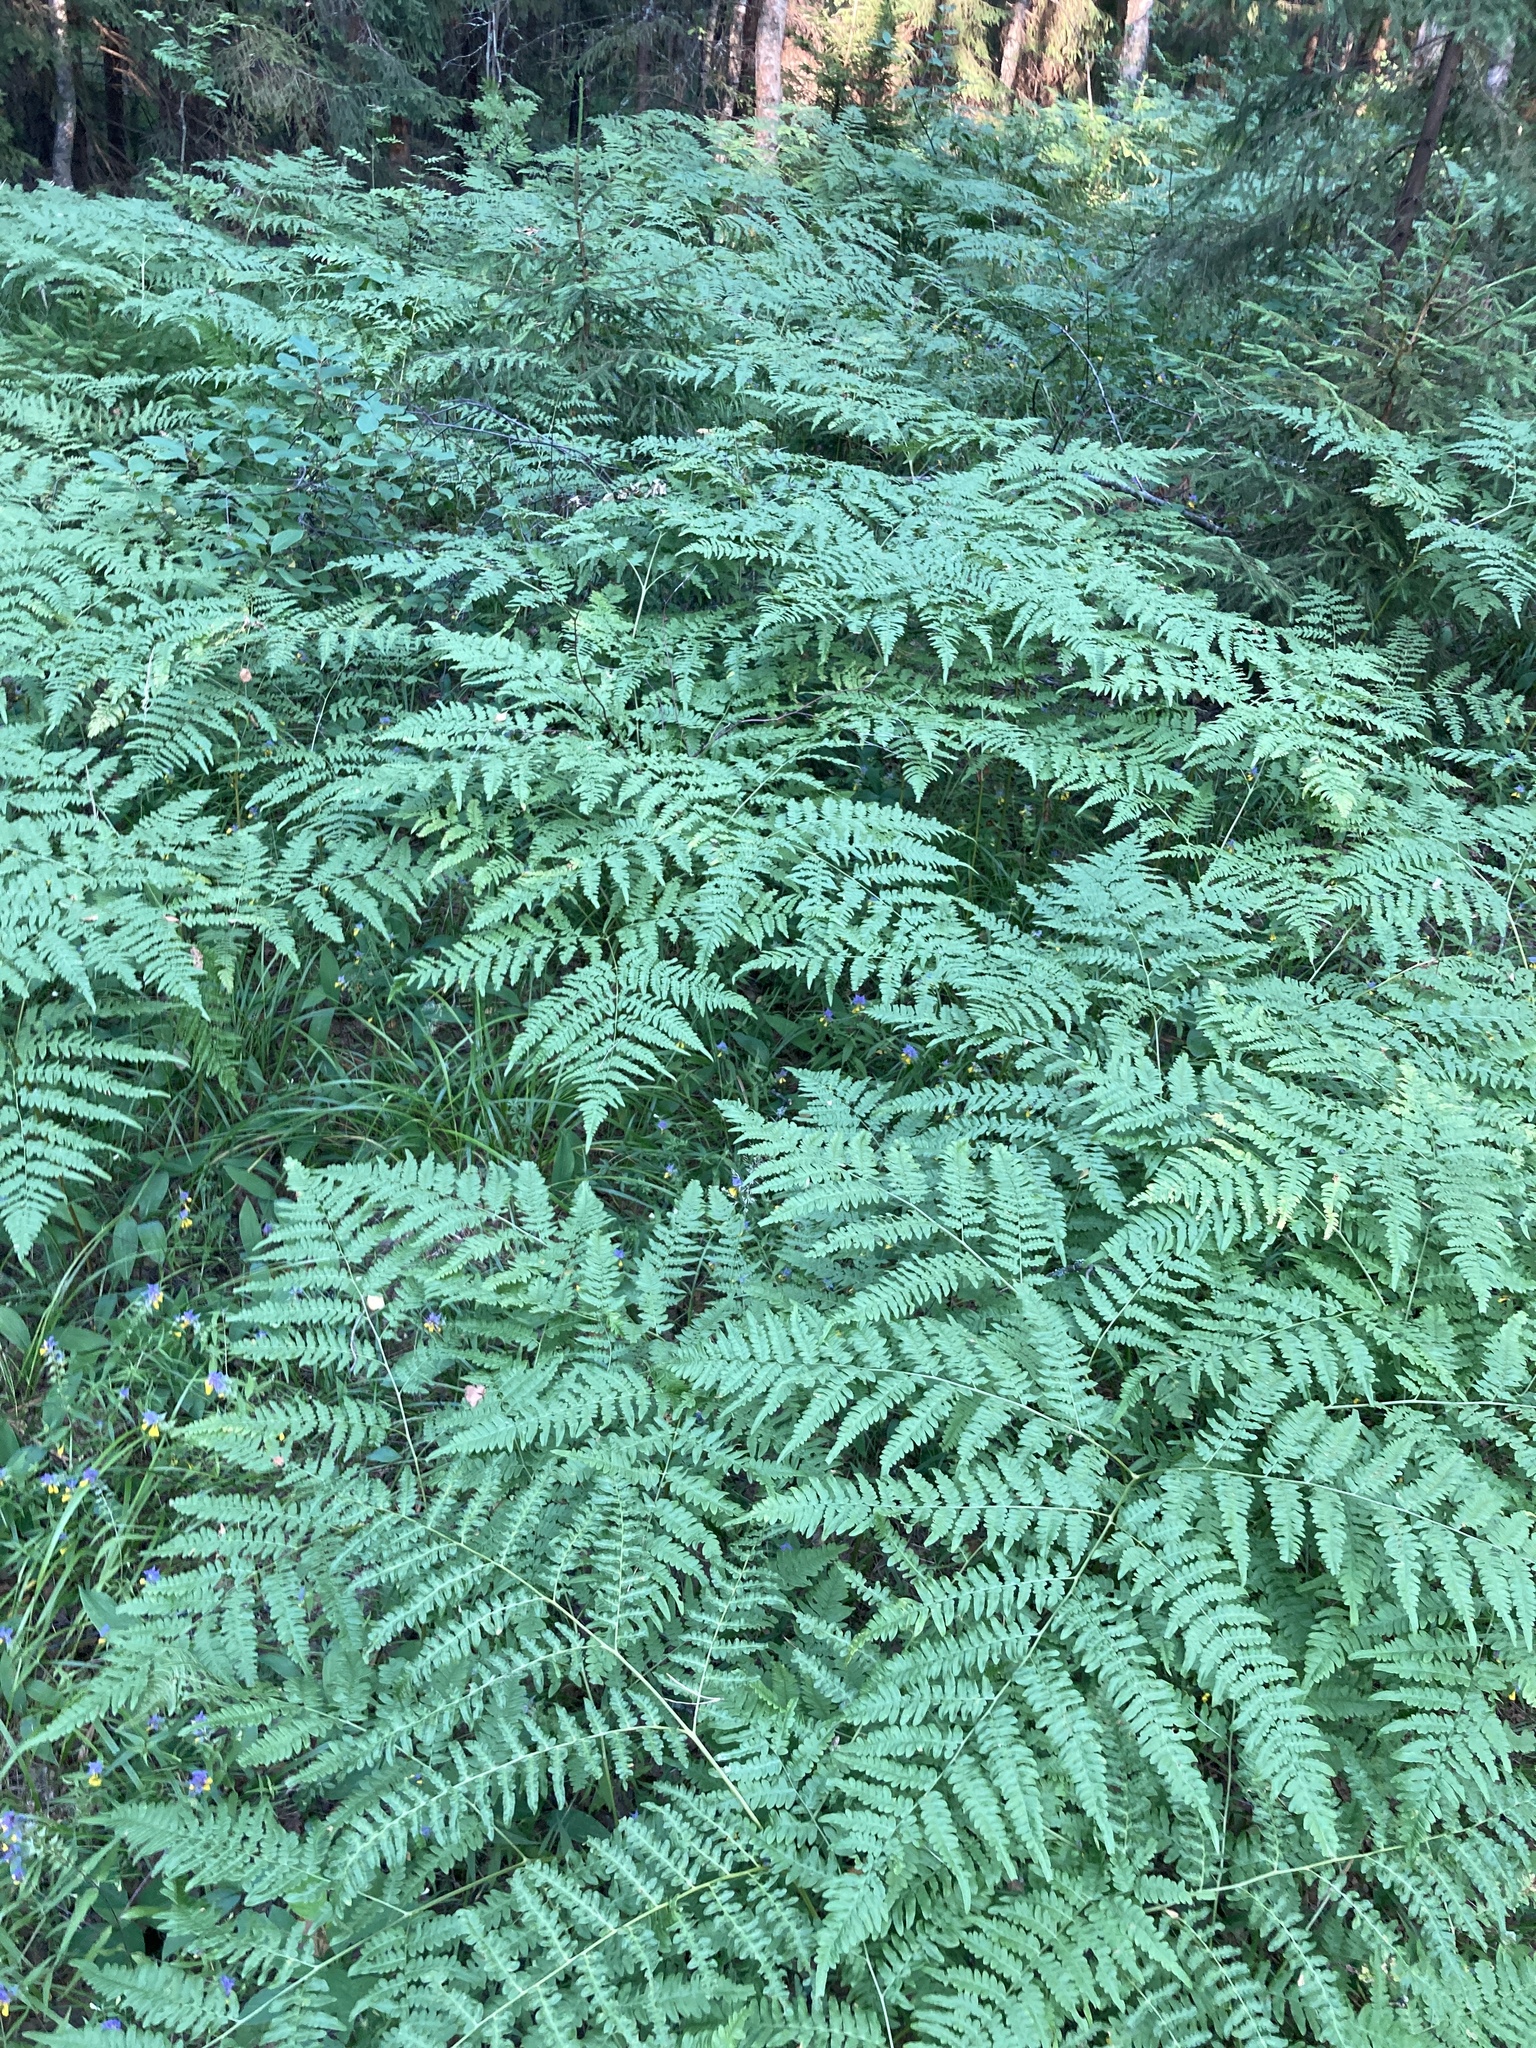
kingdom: Plantae
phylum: Tracheophyta
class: Polypodiopsida
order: Polypodiales
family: Dennstaedtiaceae
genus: Pteridium
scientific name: Pteridium aquilinum
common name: Bracken
